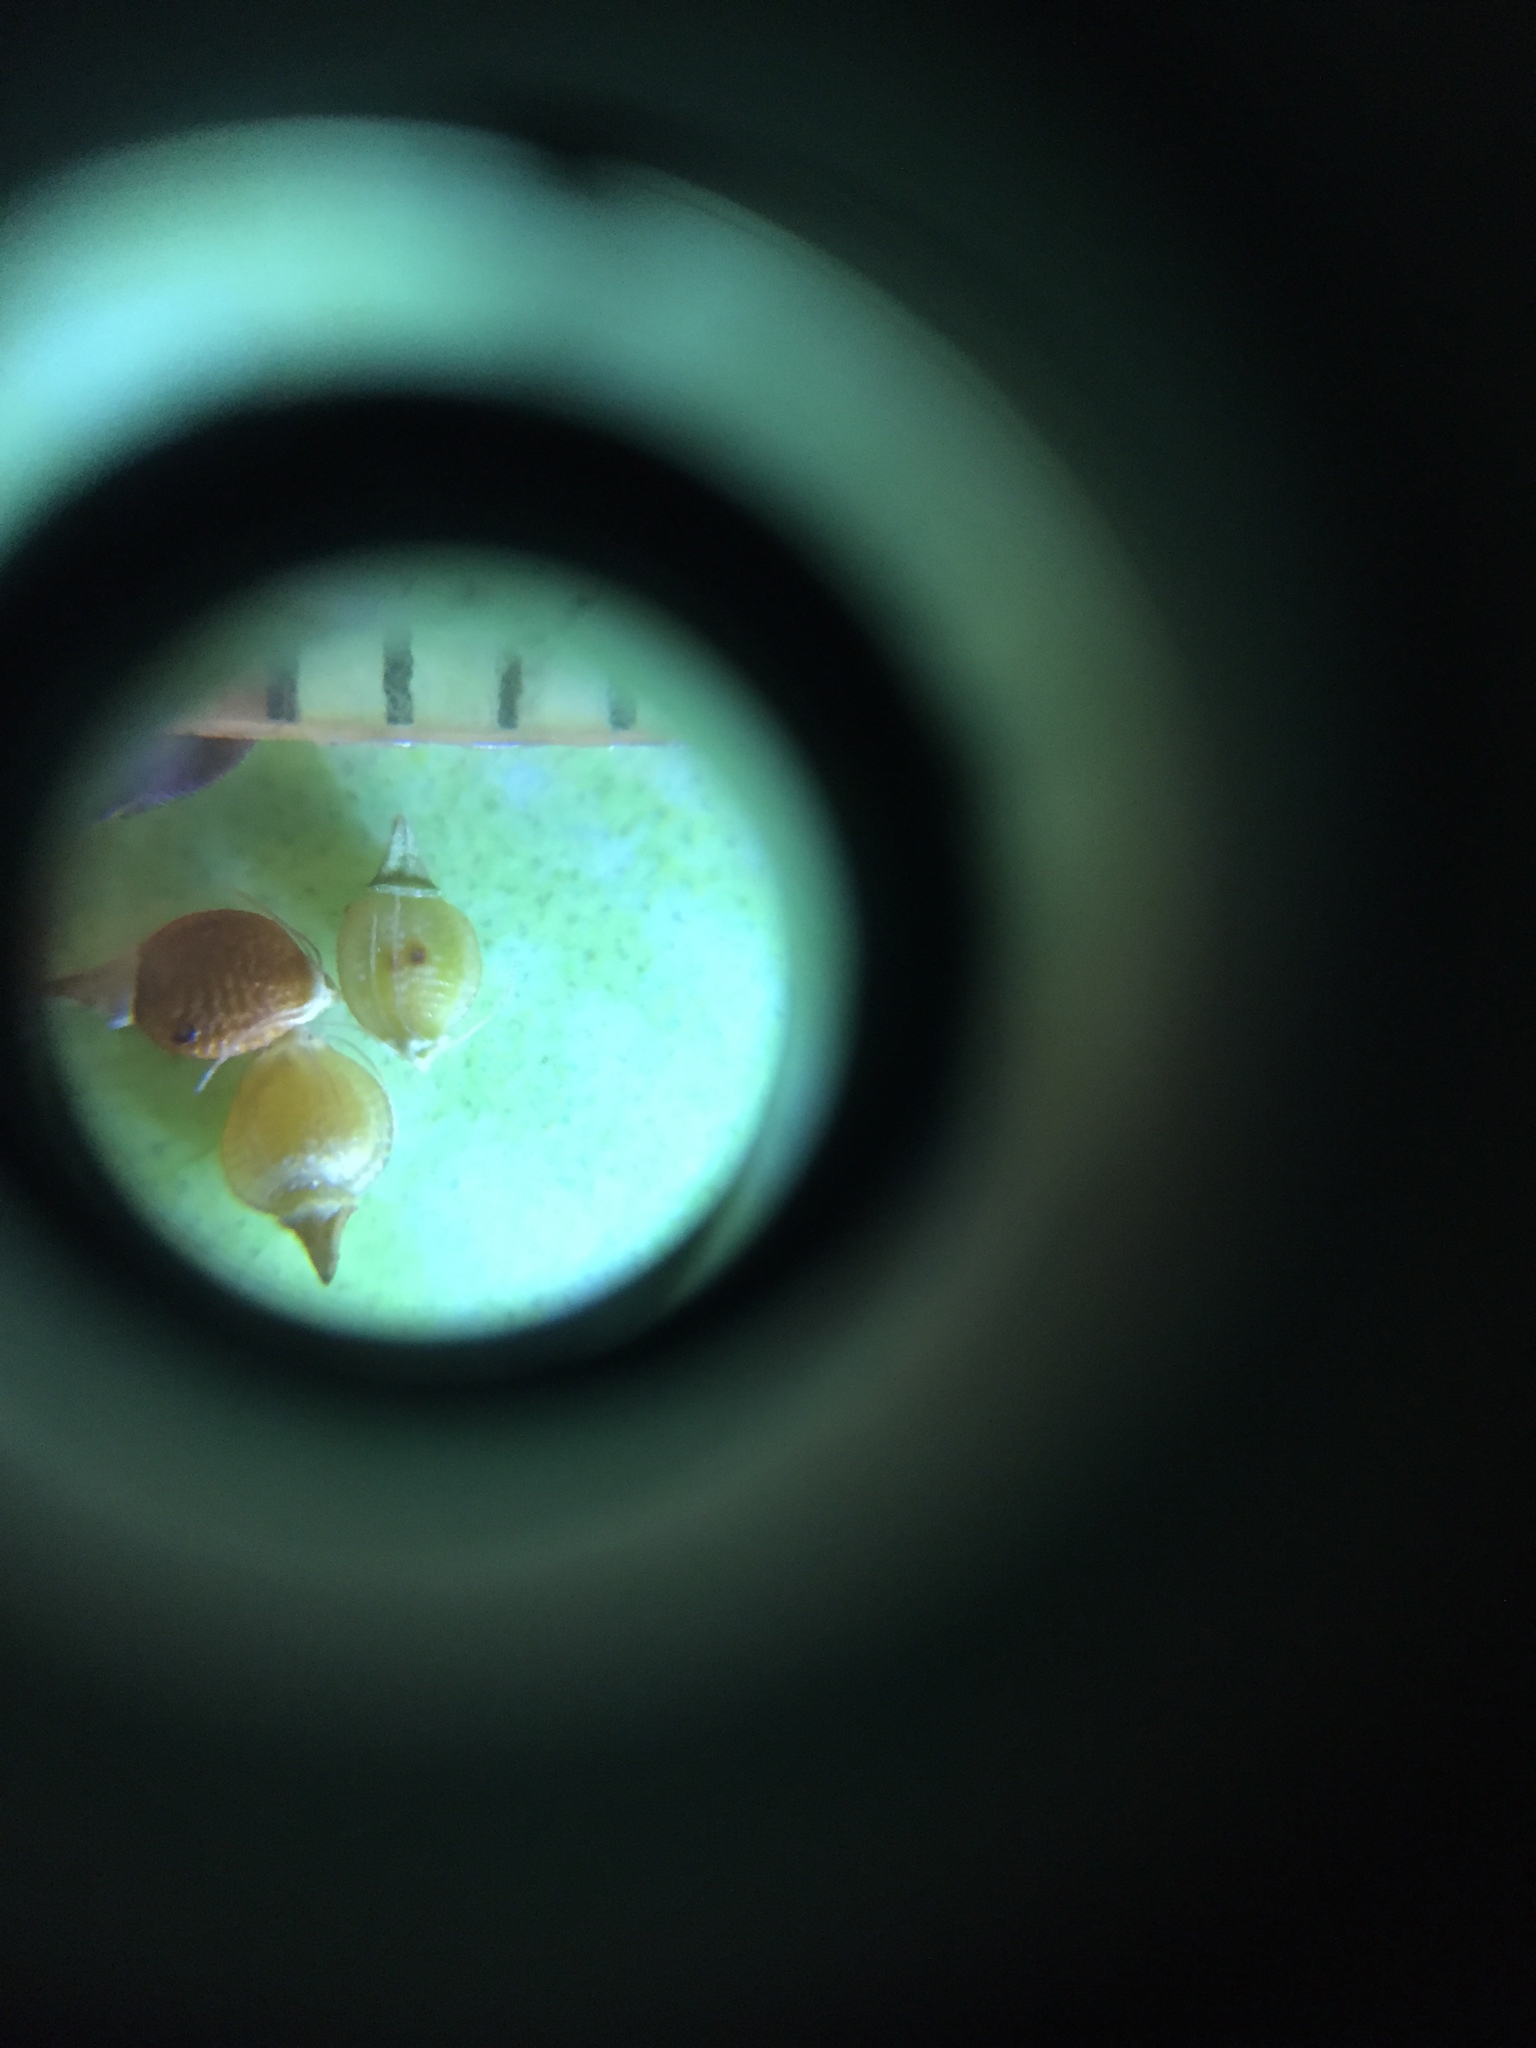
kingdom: Plantae
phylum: Tracheophyta
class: Liliopsida
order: Poales
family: Cyperaceae
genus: Rhynchospora
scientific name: Rhynchospora recognita
